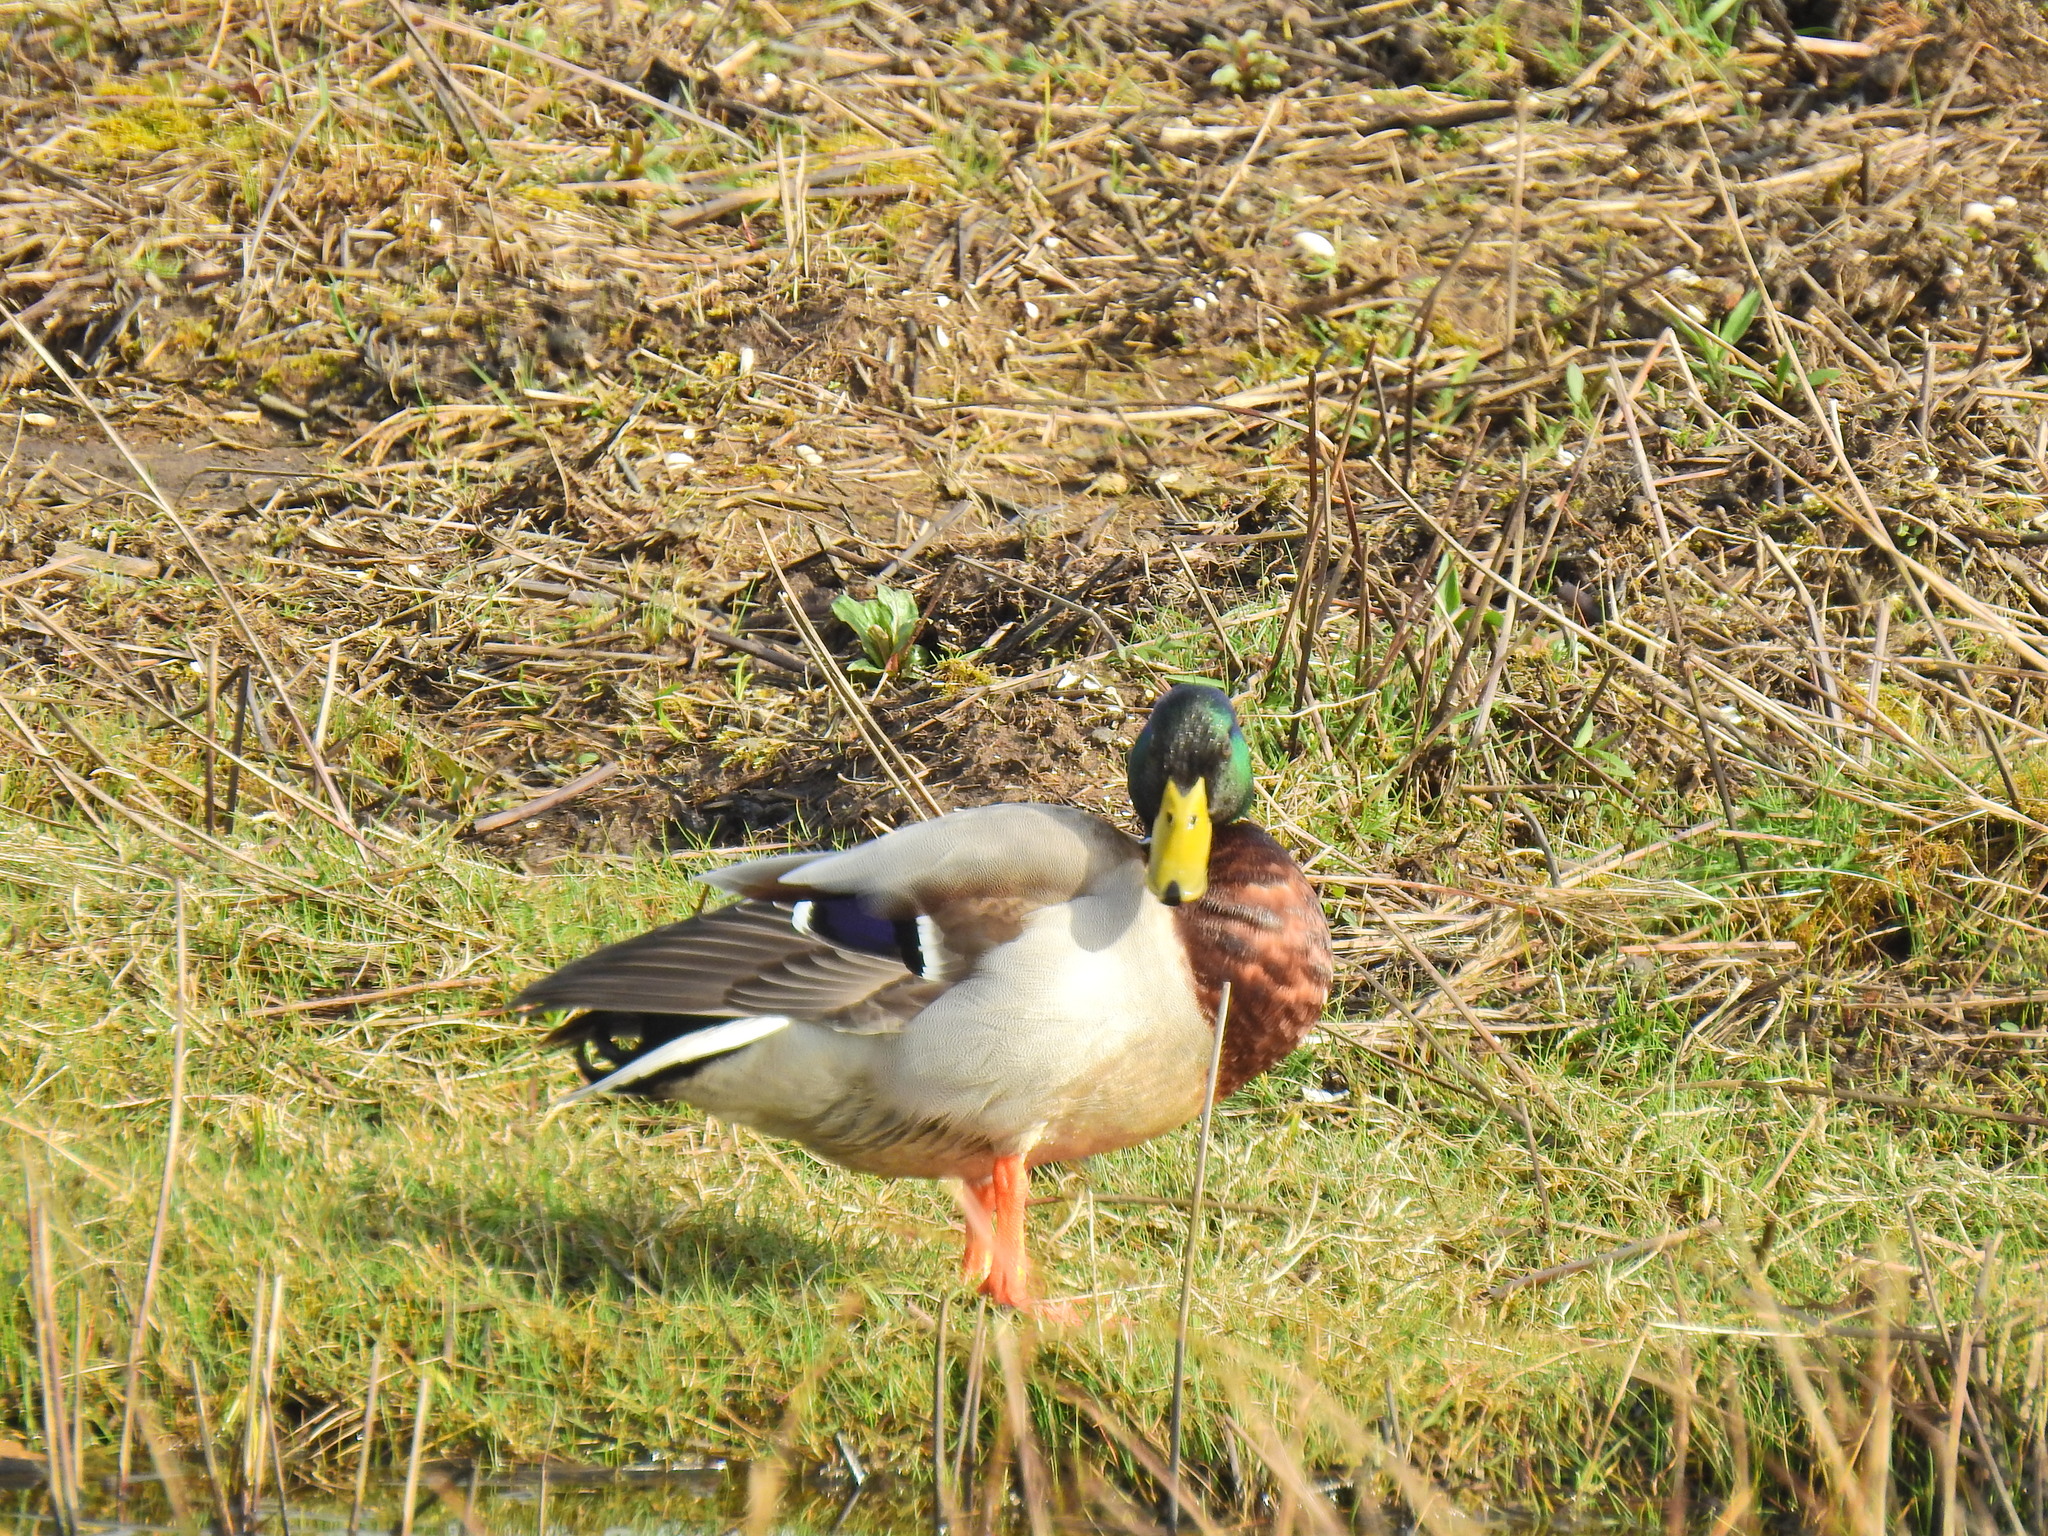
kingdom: Animalia
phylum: Chordata
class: Aves
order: Anseriformes
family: Anatidae
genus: Anas
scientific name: Anas platyrhynchos
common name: Mallard
